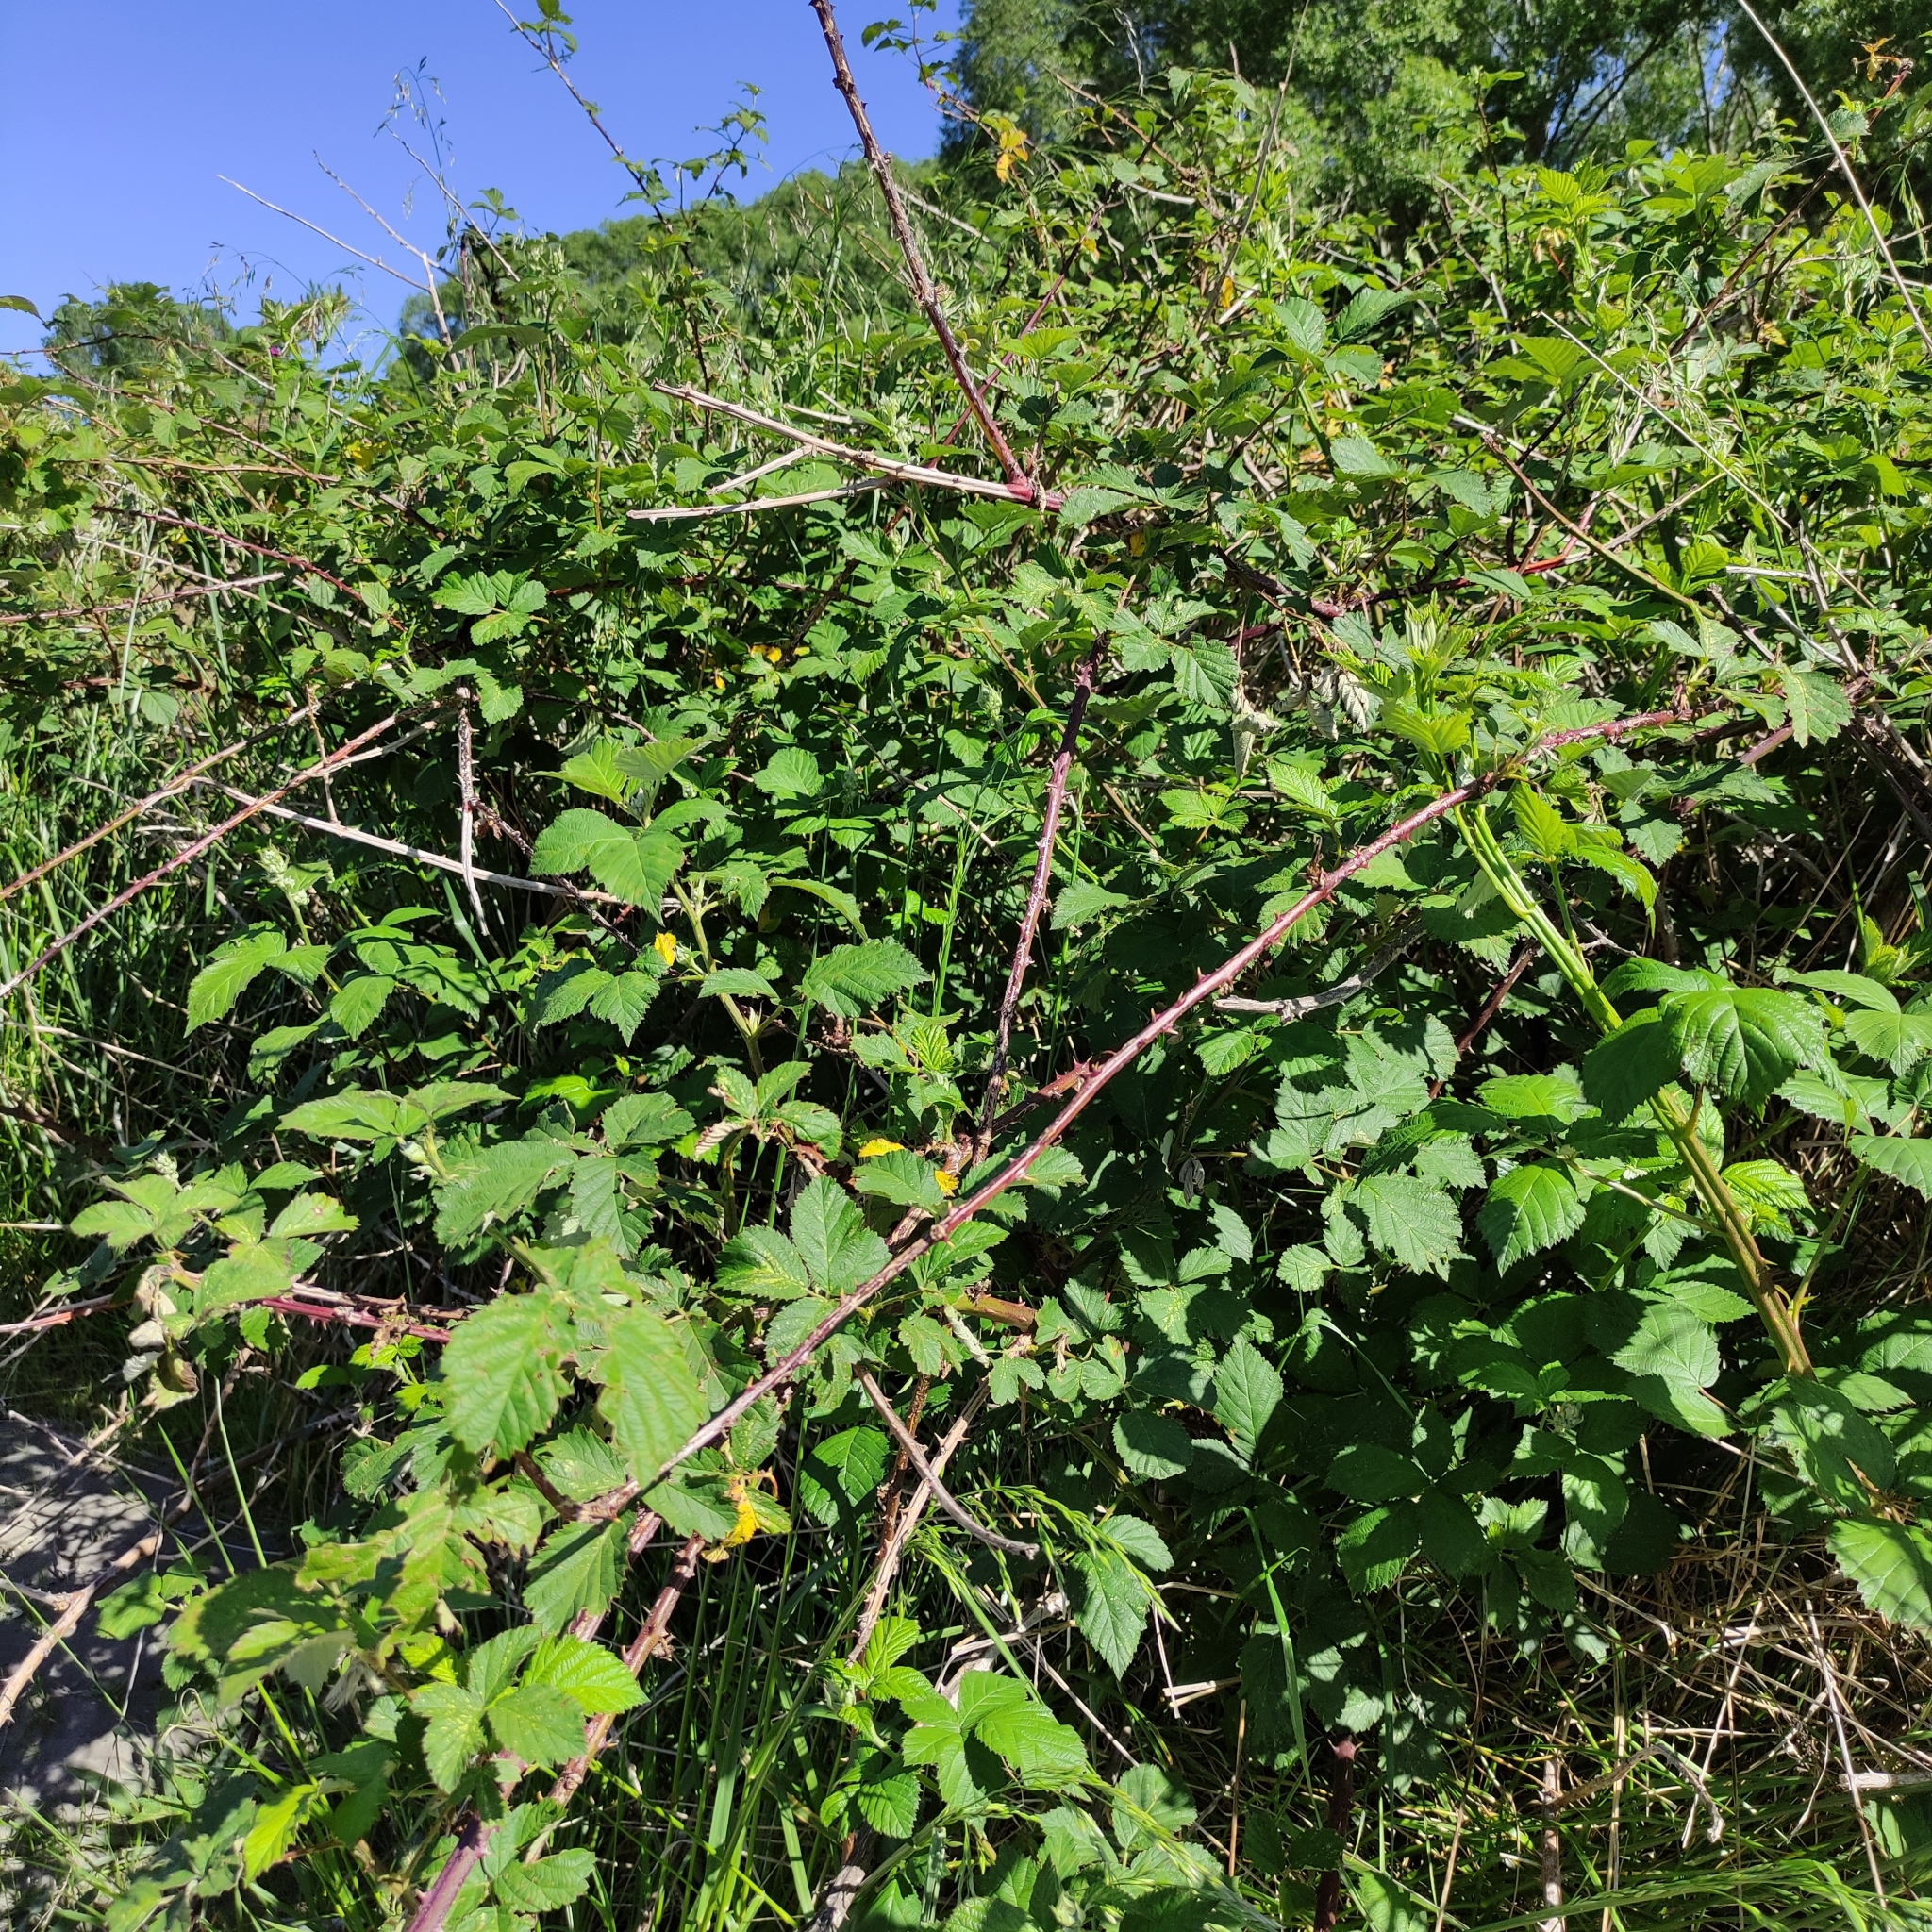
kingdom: Plantae
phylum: Tracheophyta
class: Magnoliopsida
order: Rosales
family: Rosaceae
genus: Rubus
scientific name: Rubus fruticosus
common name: Blackberry, bramble
